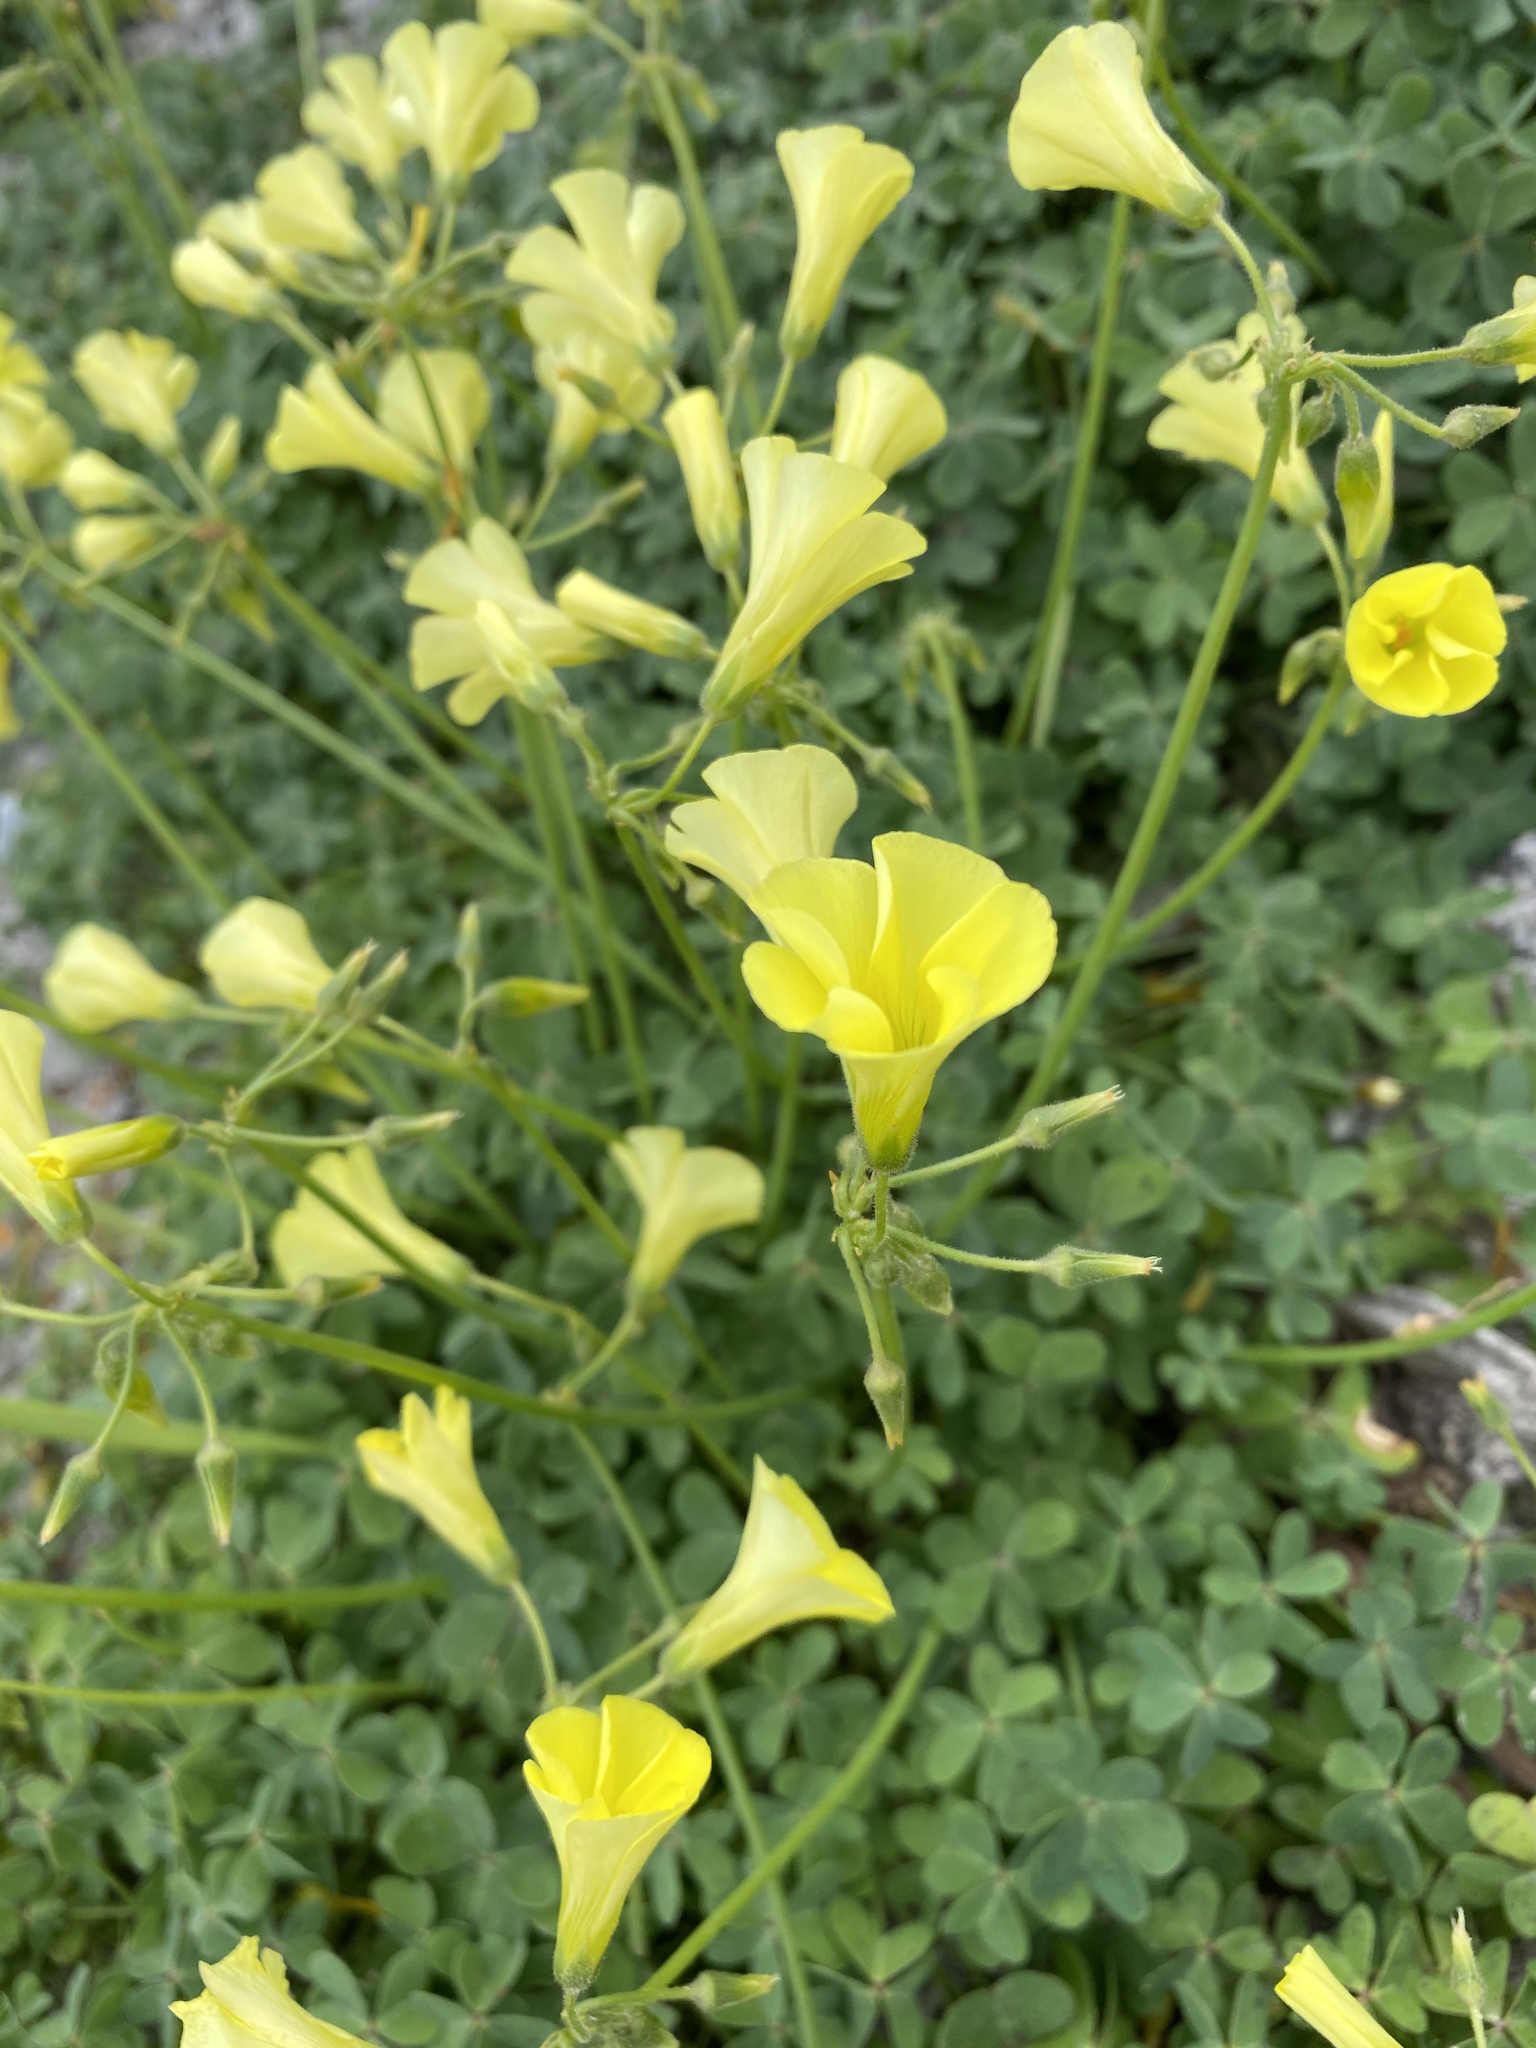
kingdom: Plantae
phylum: Tracheophyta
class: Magnoliopsida
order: Oxalidales
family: Oxalidaceae
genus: Oxalis
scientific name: Oxalis pes-caprae
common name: Bermuda-buttercup
